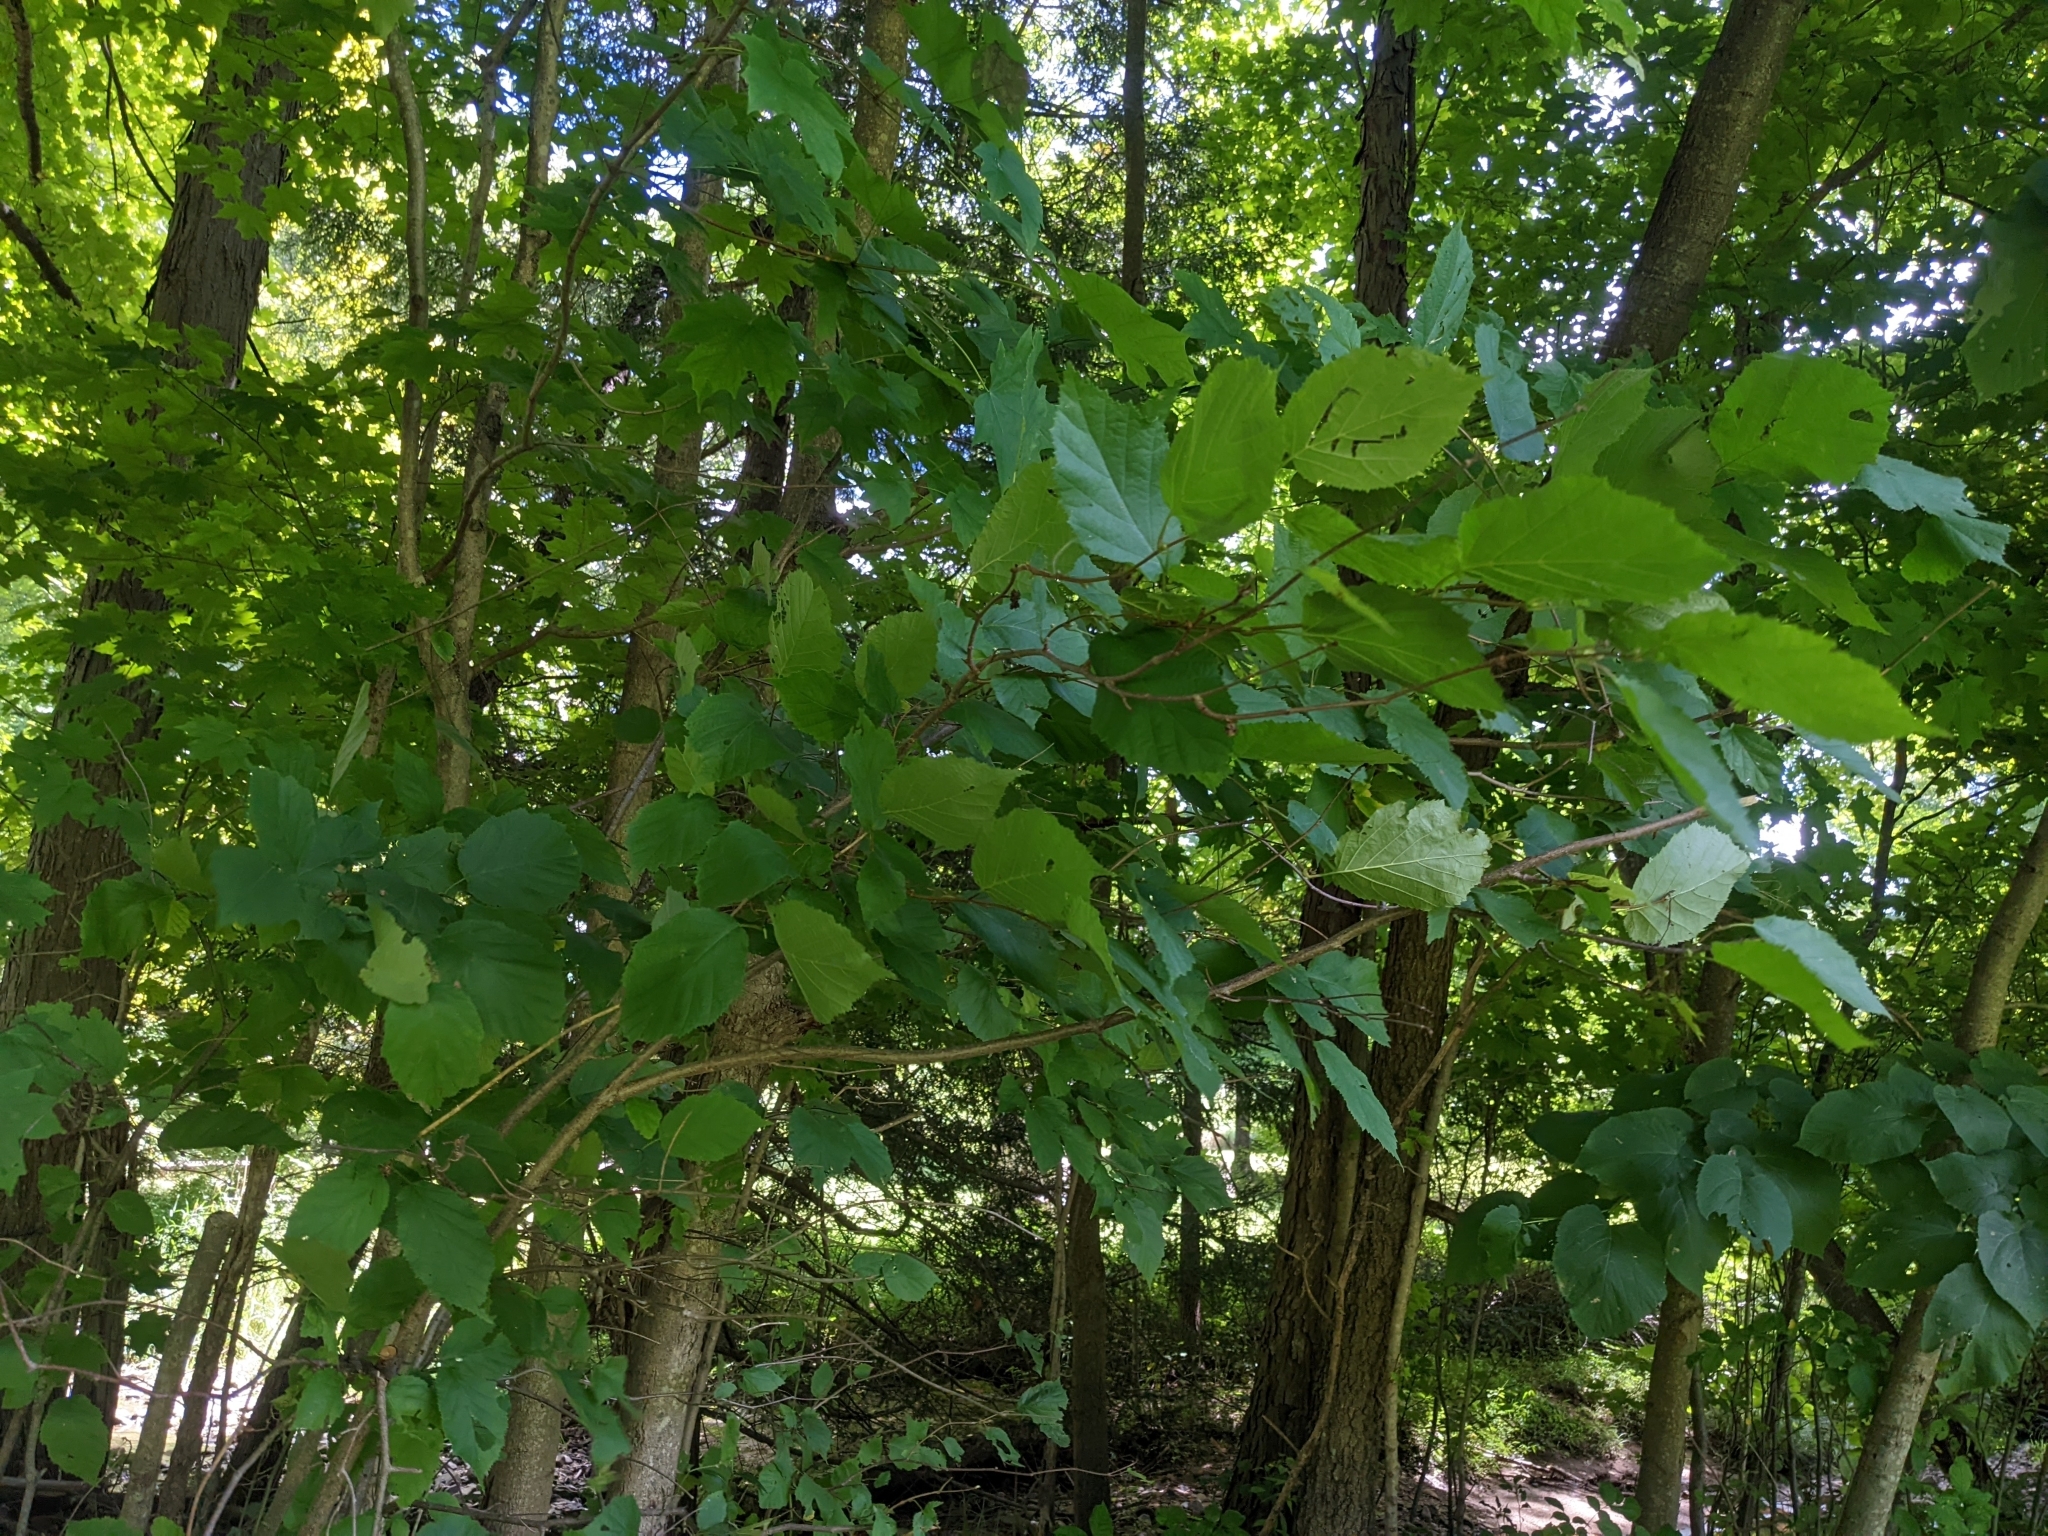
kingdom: Plantae
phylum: Tracheophyta
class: Magnoliopsida
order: Fagales
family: Betulaceae
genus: Corylus
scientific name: Corylus americana
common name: American hazel
